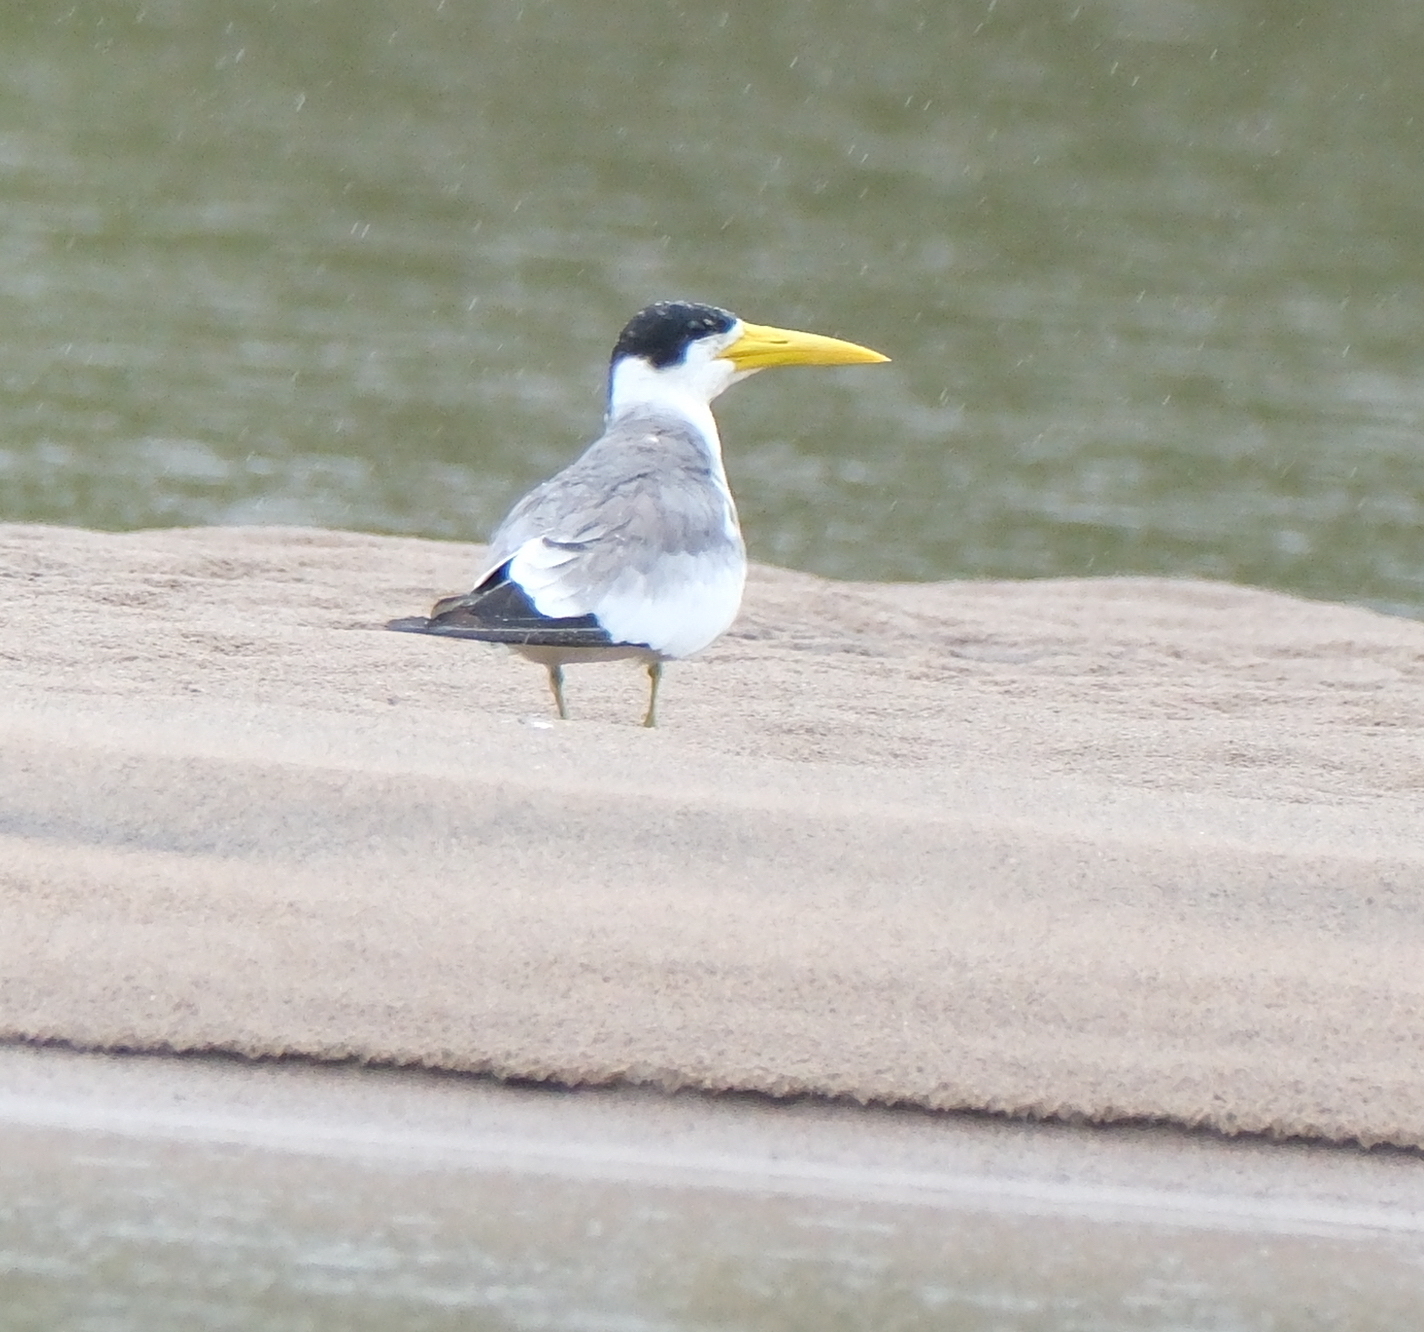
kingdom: Animalia
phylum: Chordata
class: Aves
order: Charadriiformes
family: Laridae
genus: Phaetusa
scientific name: Phaetusa simplex
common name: Large-billed tern
